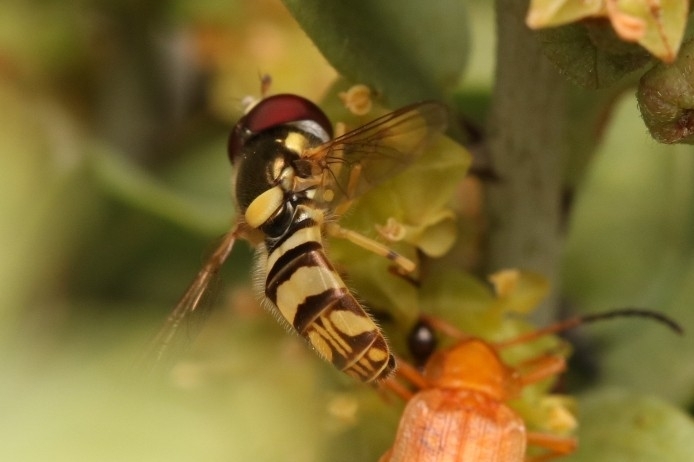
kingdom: Animalia
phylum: Arthropoda
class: Insecta
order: Diptera
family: Syrphidae
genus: Allograpta
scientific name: Allograpta exotica
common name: Syrphid fly
